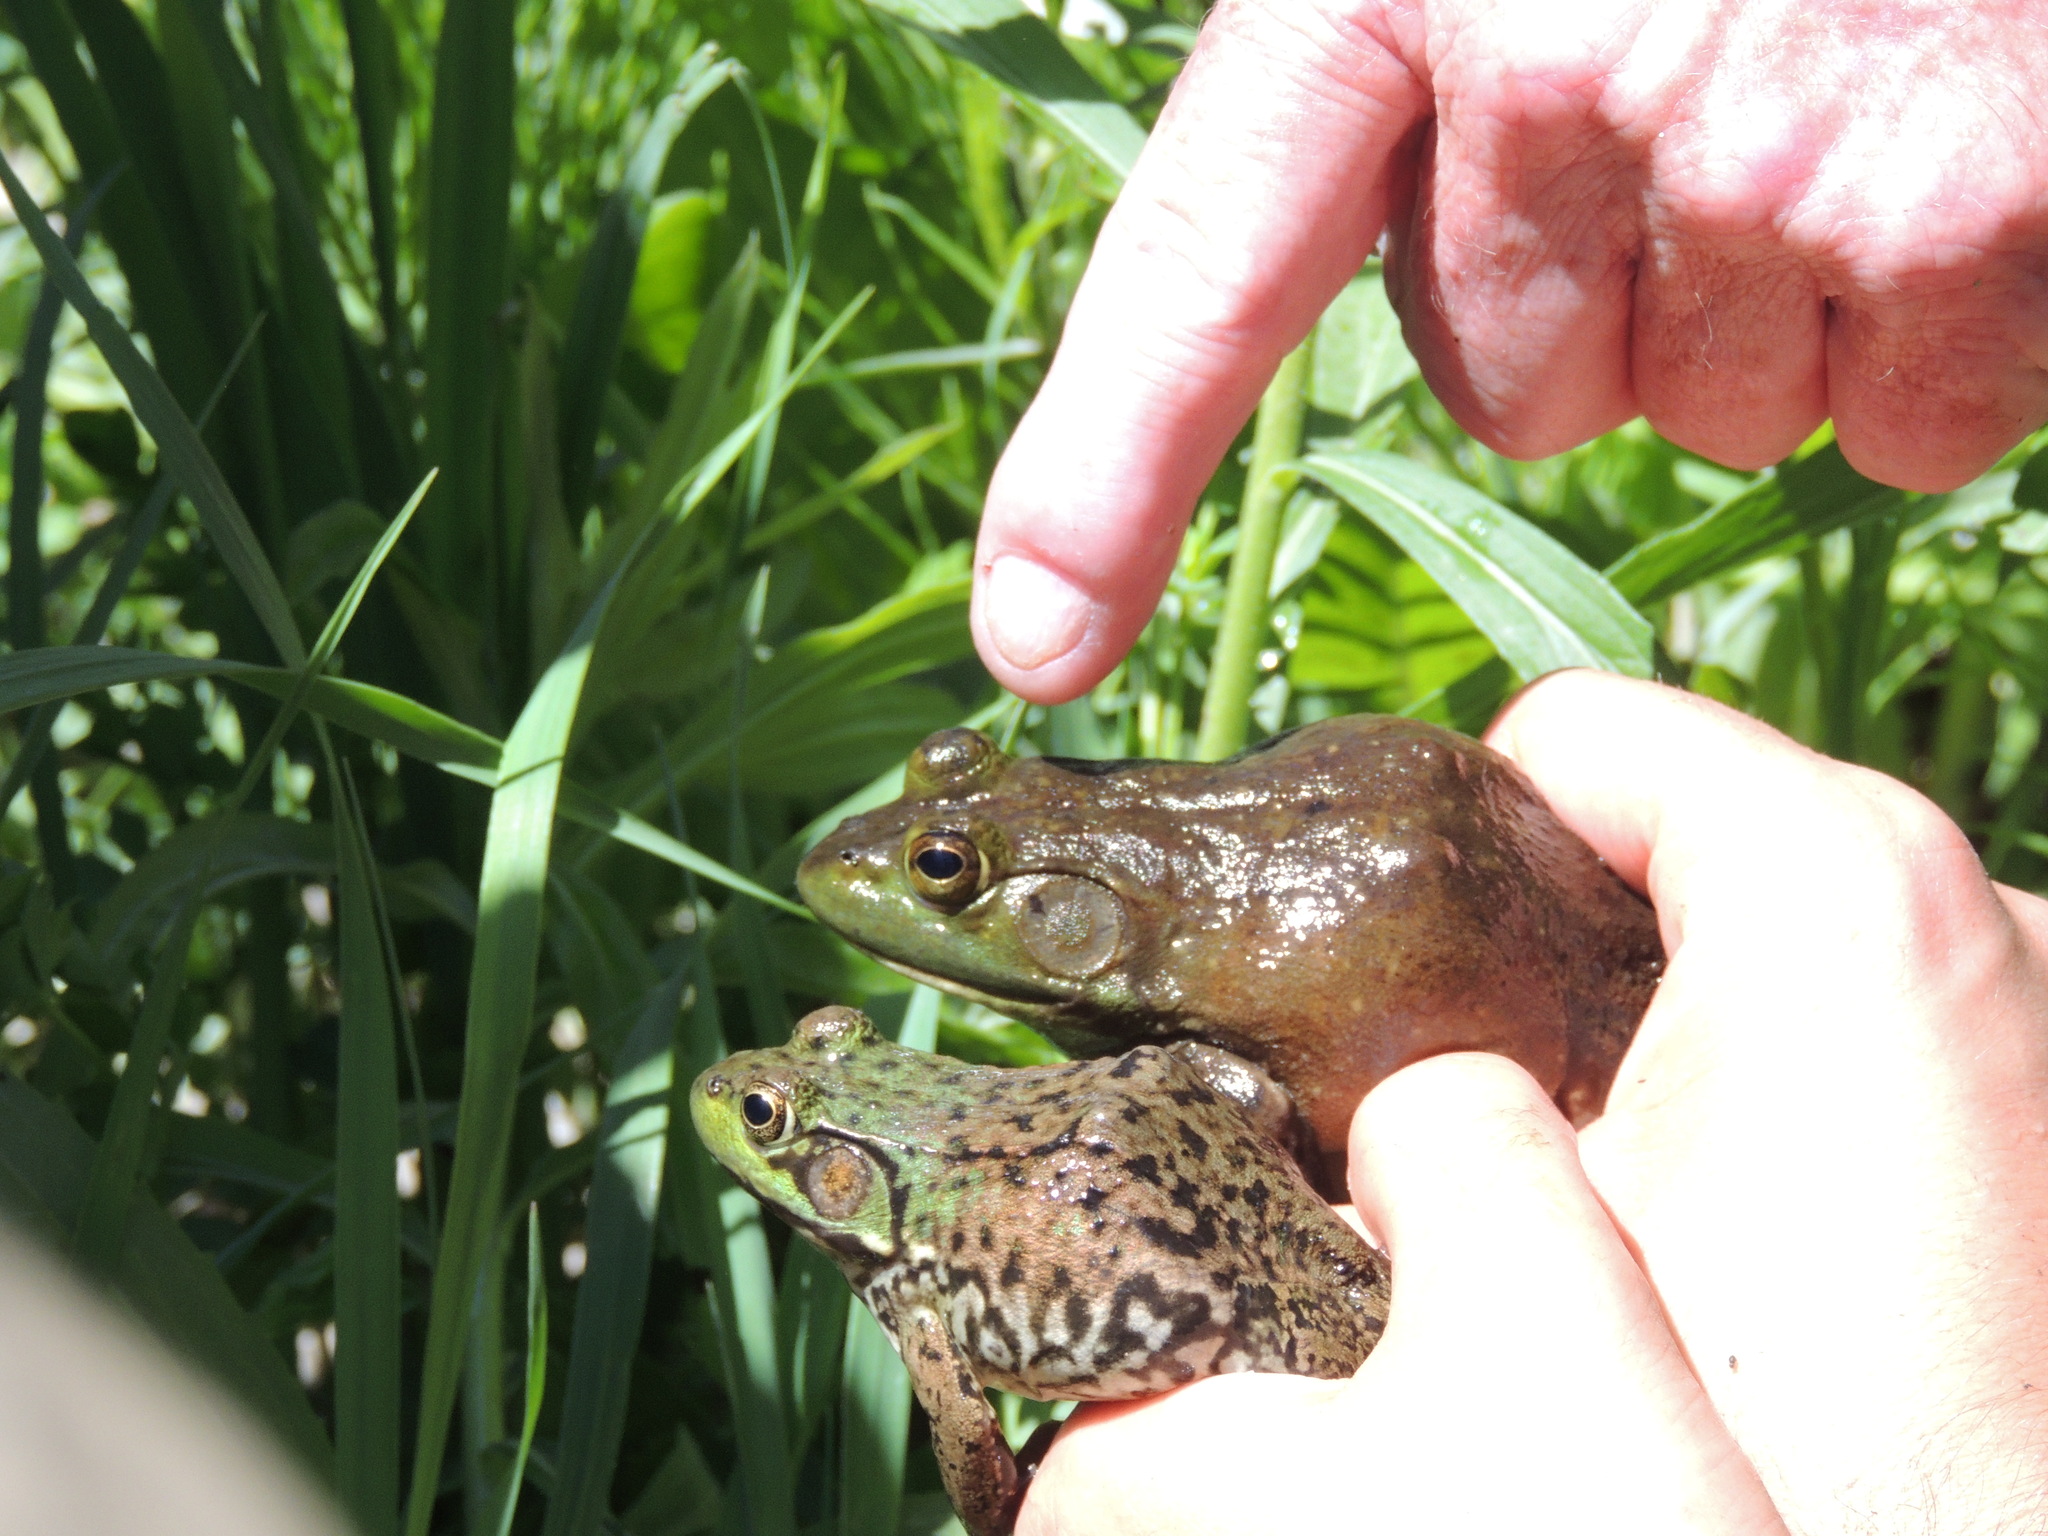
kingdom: Animalia
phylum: Chordata
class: Amphibia
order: Anura
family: Ranidae
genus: Lithobates
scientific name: Lithobates clamitans
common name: Green frog
